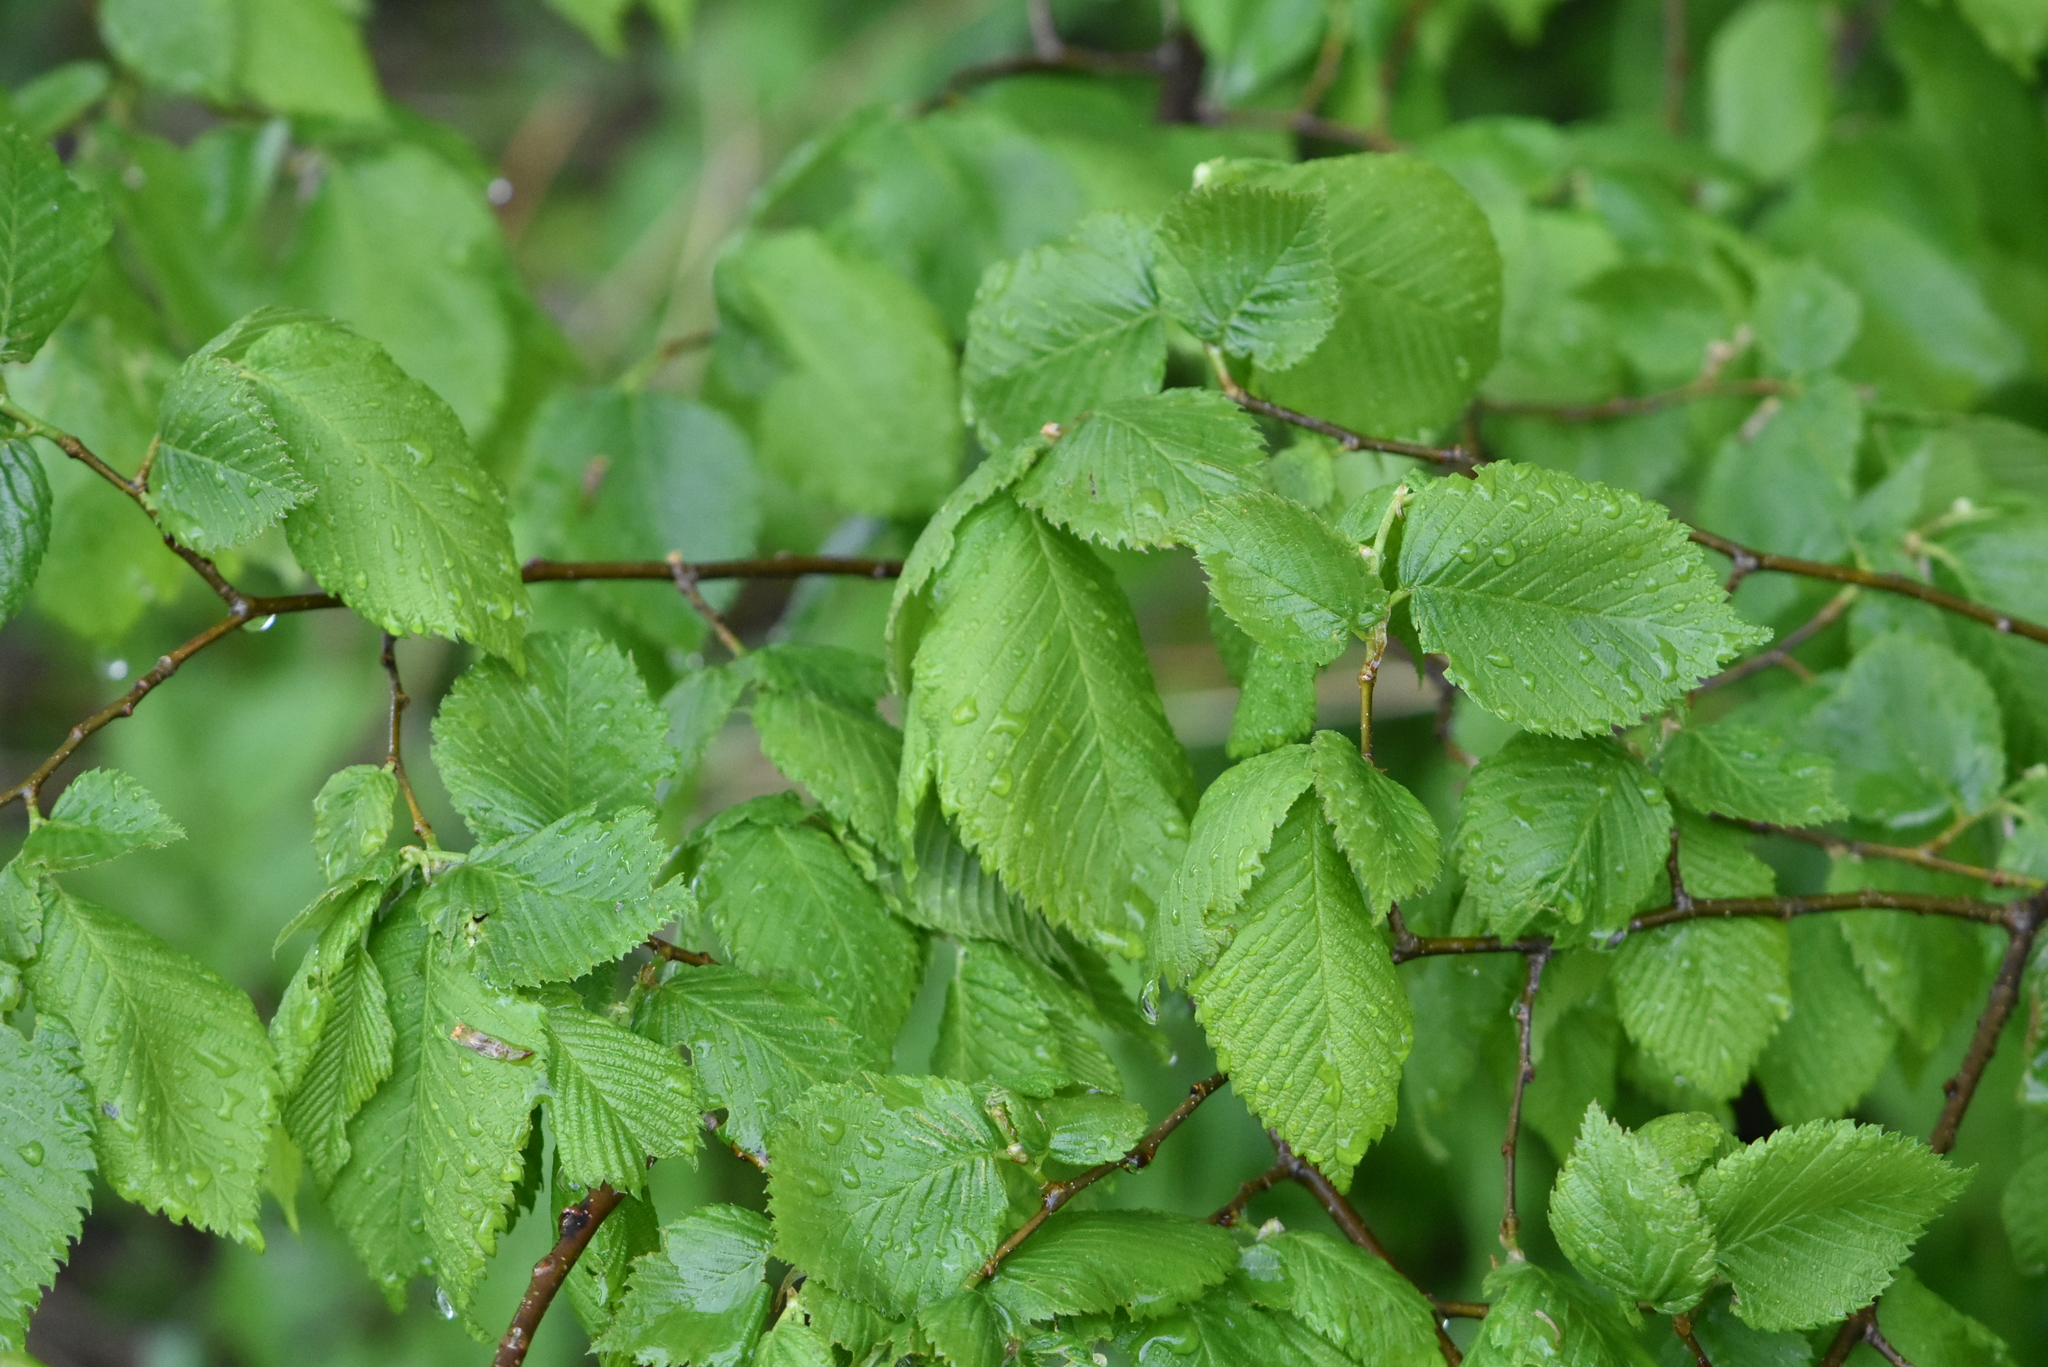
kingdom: Plantae
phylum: Tracheophyta
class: Magnoliopsida
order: Rosales
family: Ulmaceae
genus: Ulmus
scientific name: Ulmus laevis
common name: European white-elm
